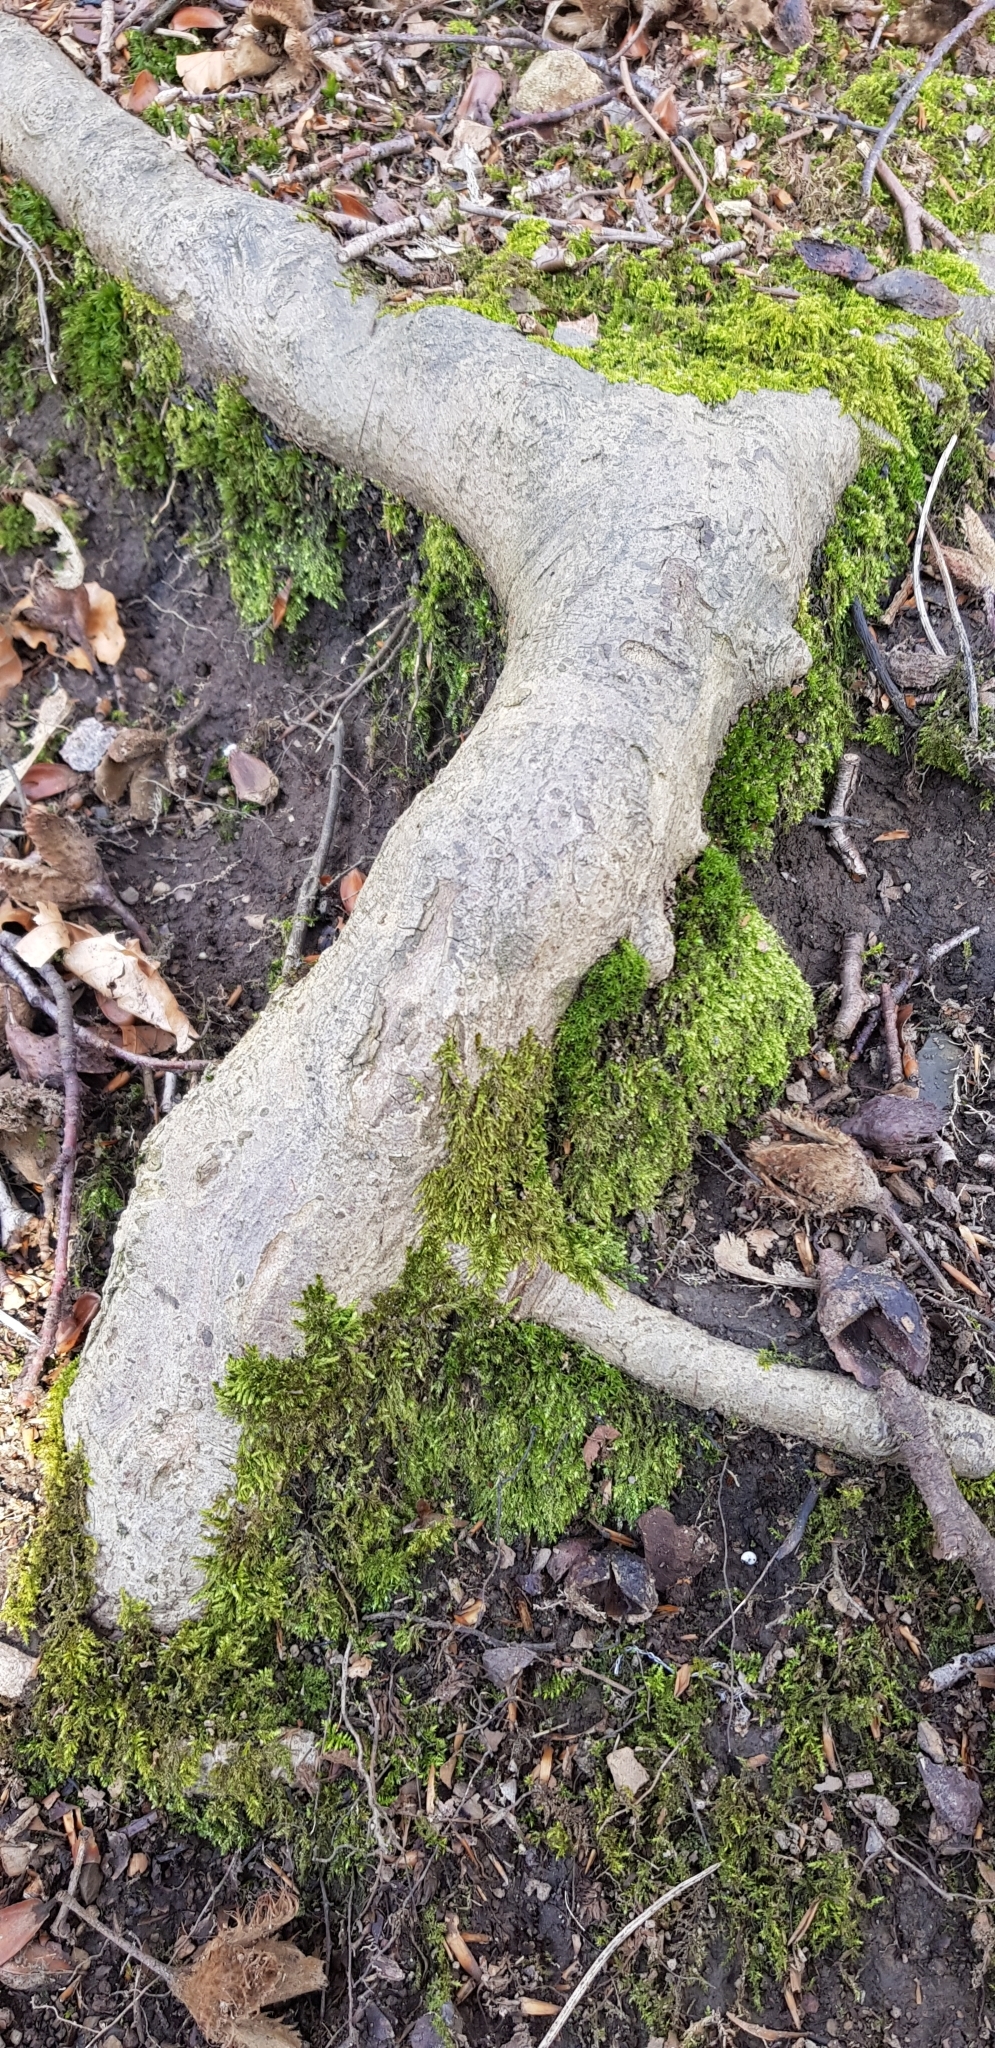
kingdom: Plantae
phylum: Bryophyta
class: Bryopsida
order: Bryales
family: Bryaceae
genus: Rosulabryum
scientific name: Rosulabryum capillare
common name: Capillary thread-moss
